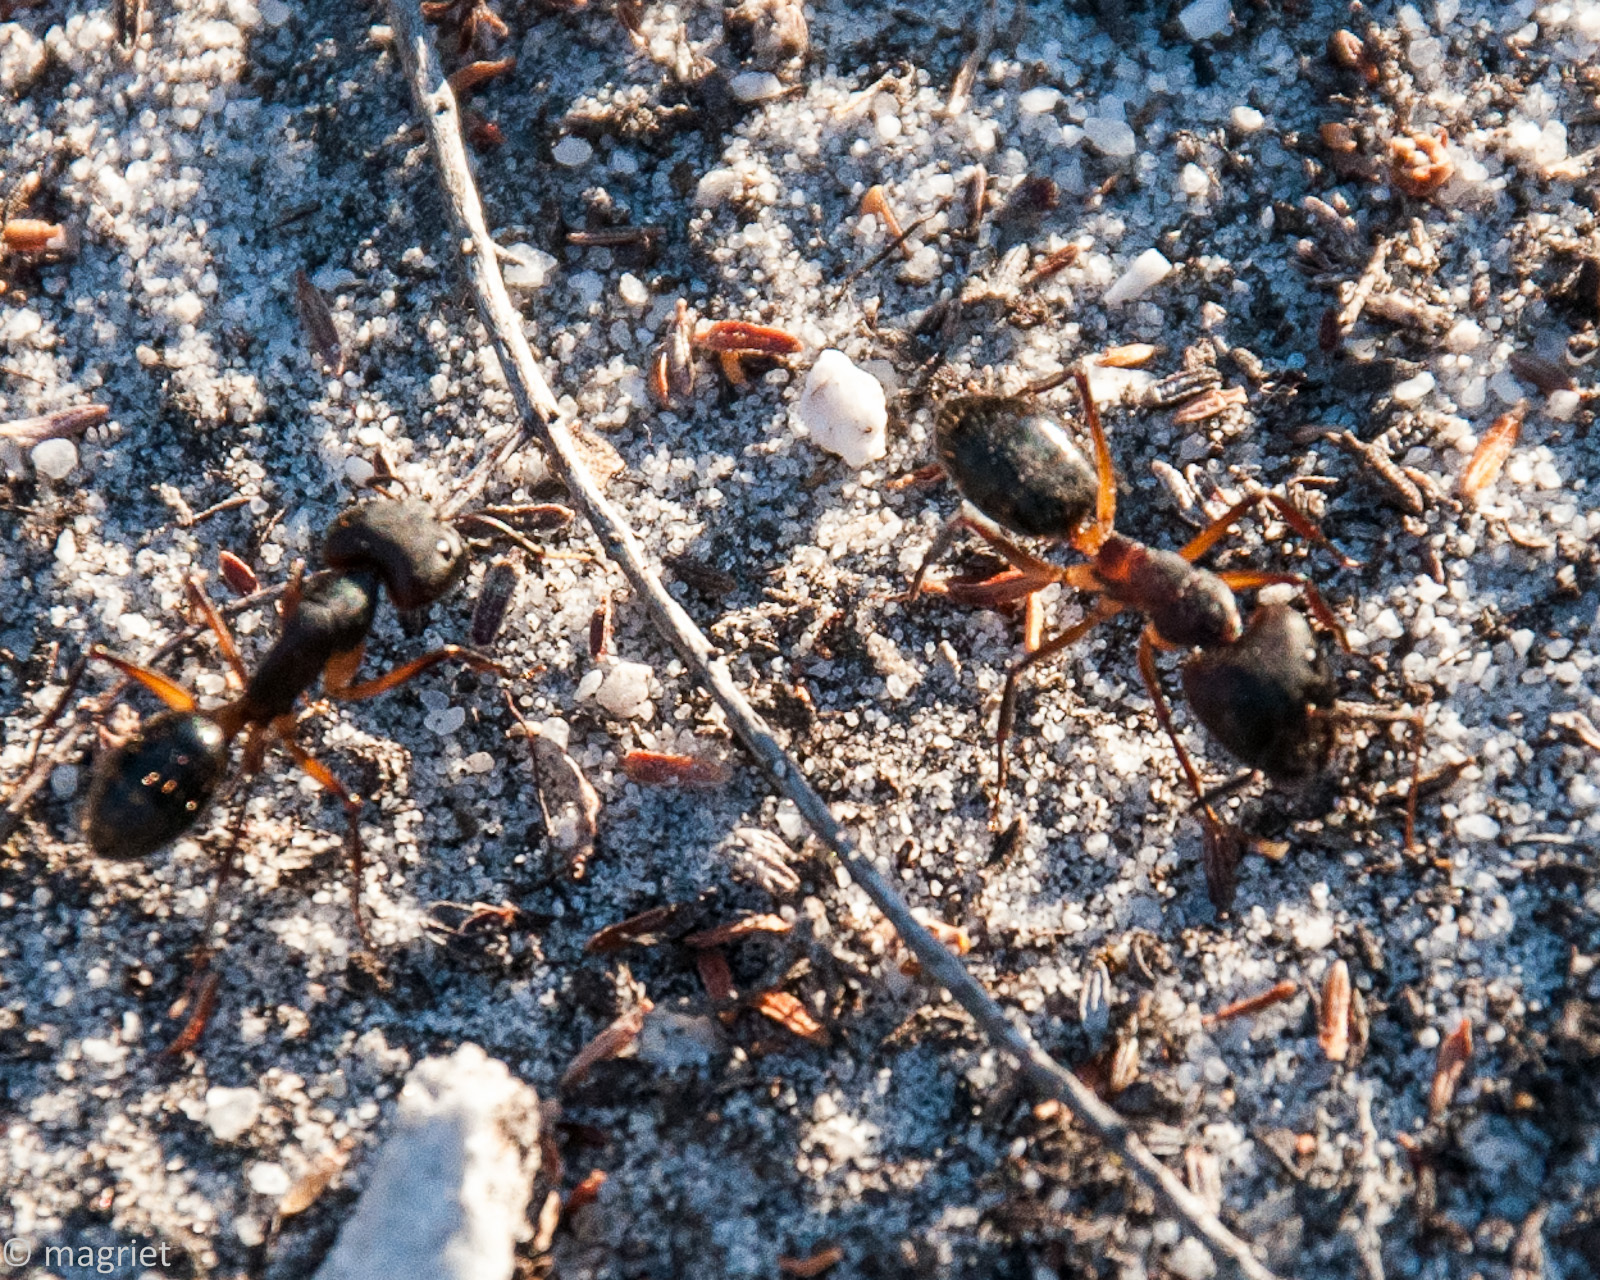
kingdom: Animalia
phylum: Arthropoda
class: Insecta
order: Hymenoptera
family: Formicidae
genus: Camponotus
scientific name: Camponotus baynei
